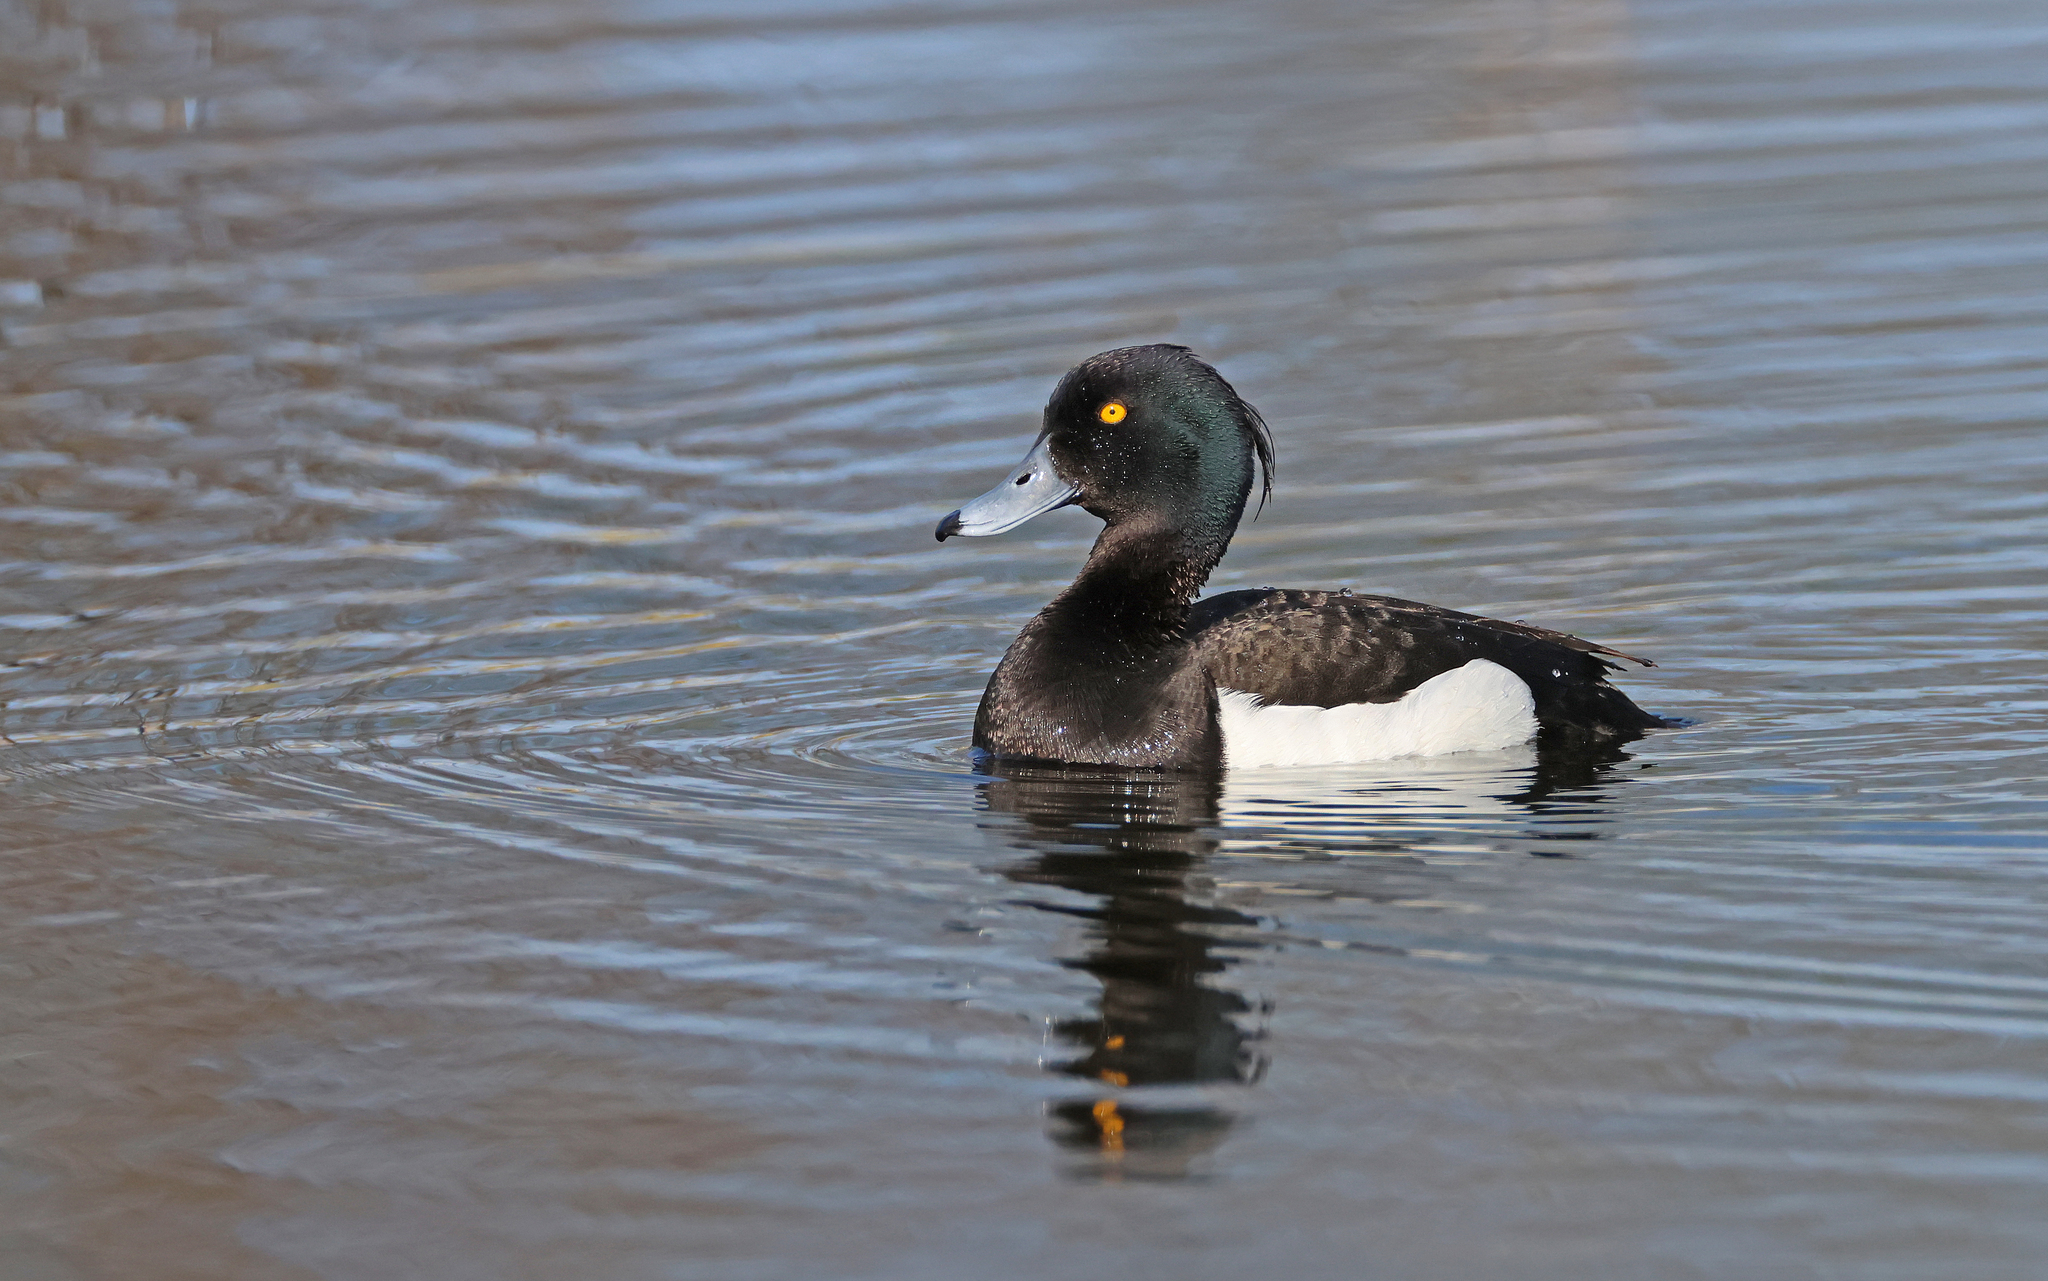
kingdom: Animalia
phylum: Chordata
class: Aves
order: Anseriformes
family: Anatidae
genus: Aythya
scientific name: Aythya fuligula
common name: Tufted duck
